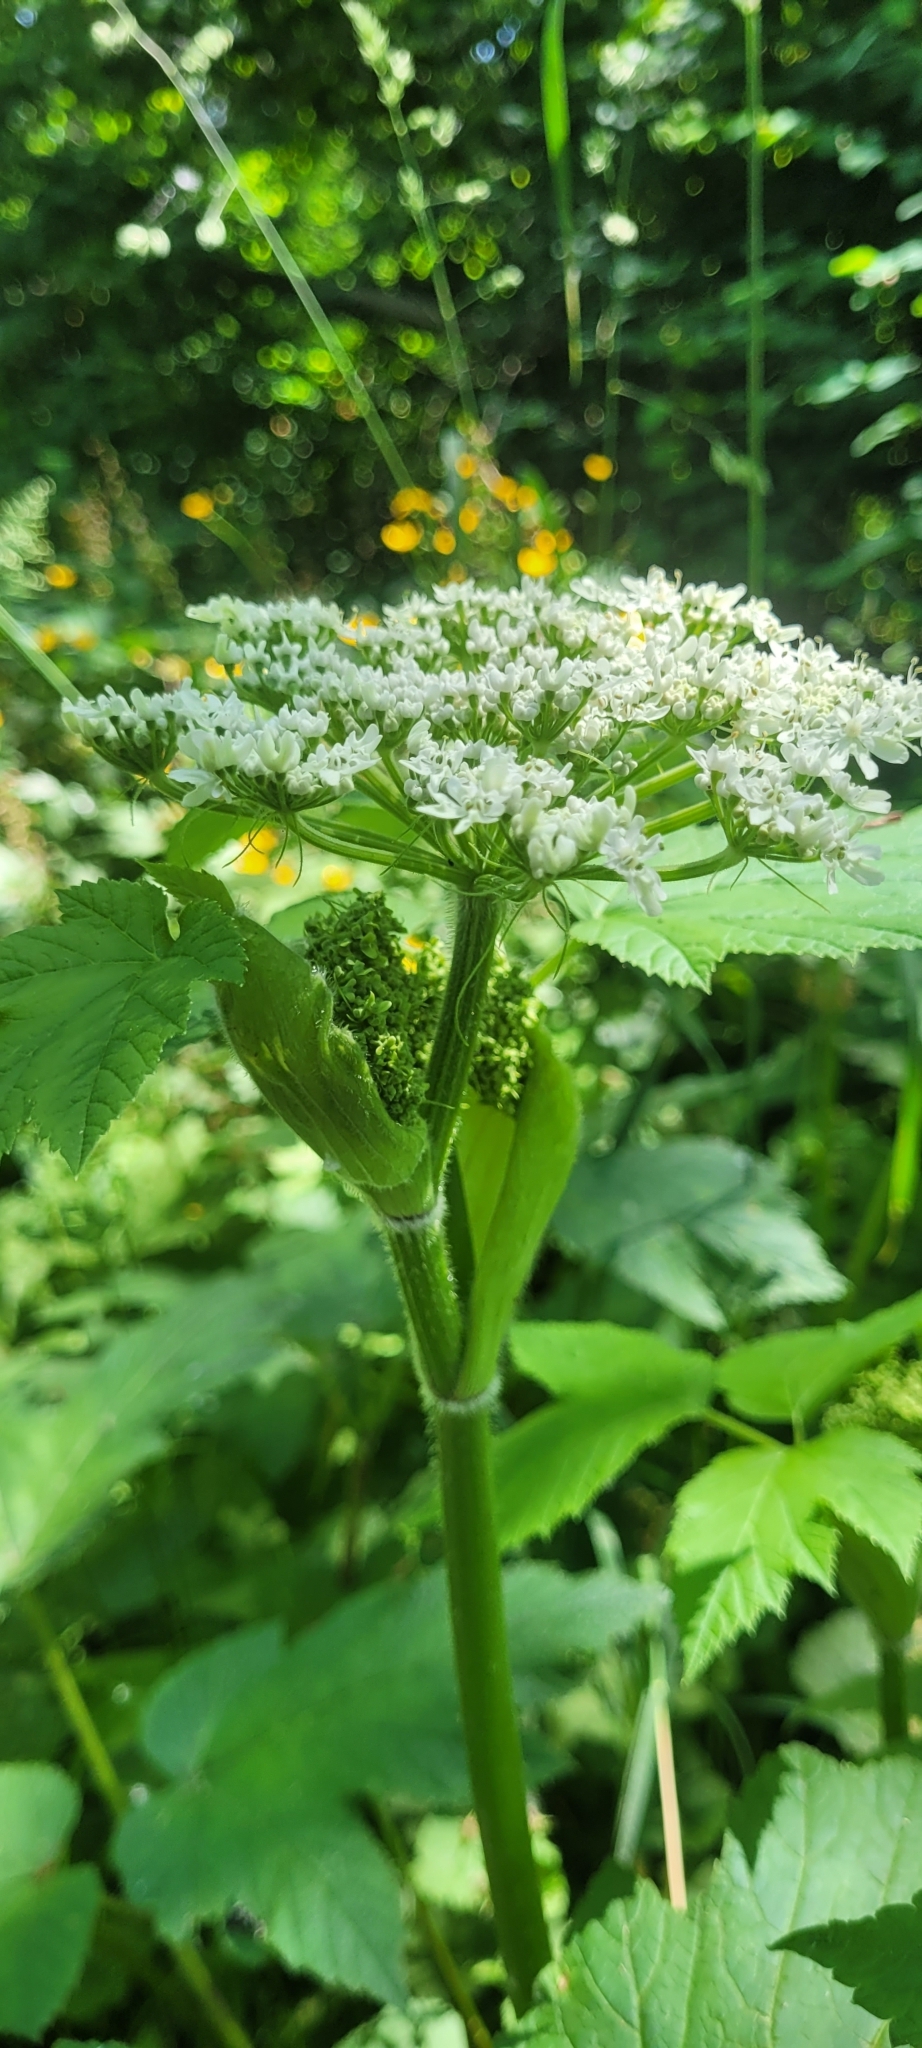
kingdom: Plantae
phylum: Tracheophyta
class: Magnoliopsida
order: Apiales
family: Apiaceae
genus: Heracleum
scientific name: Heracleum maximum
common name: American cow parsnip
